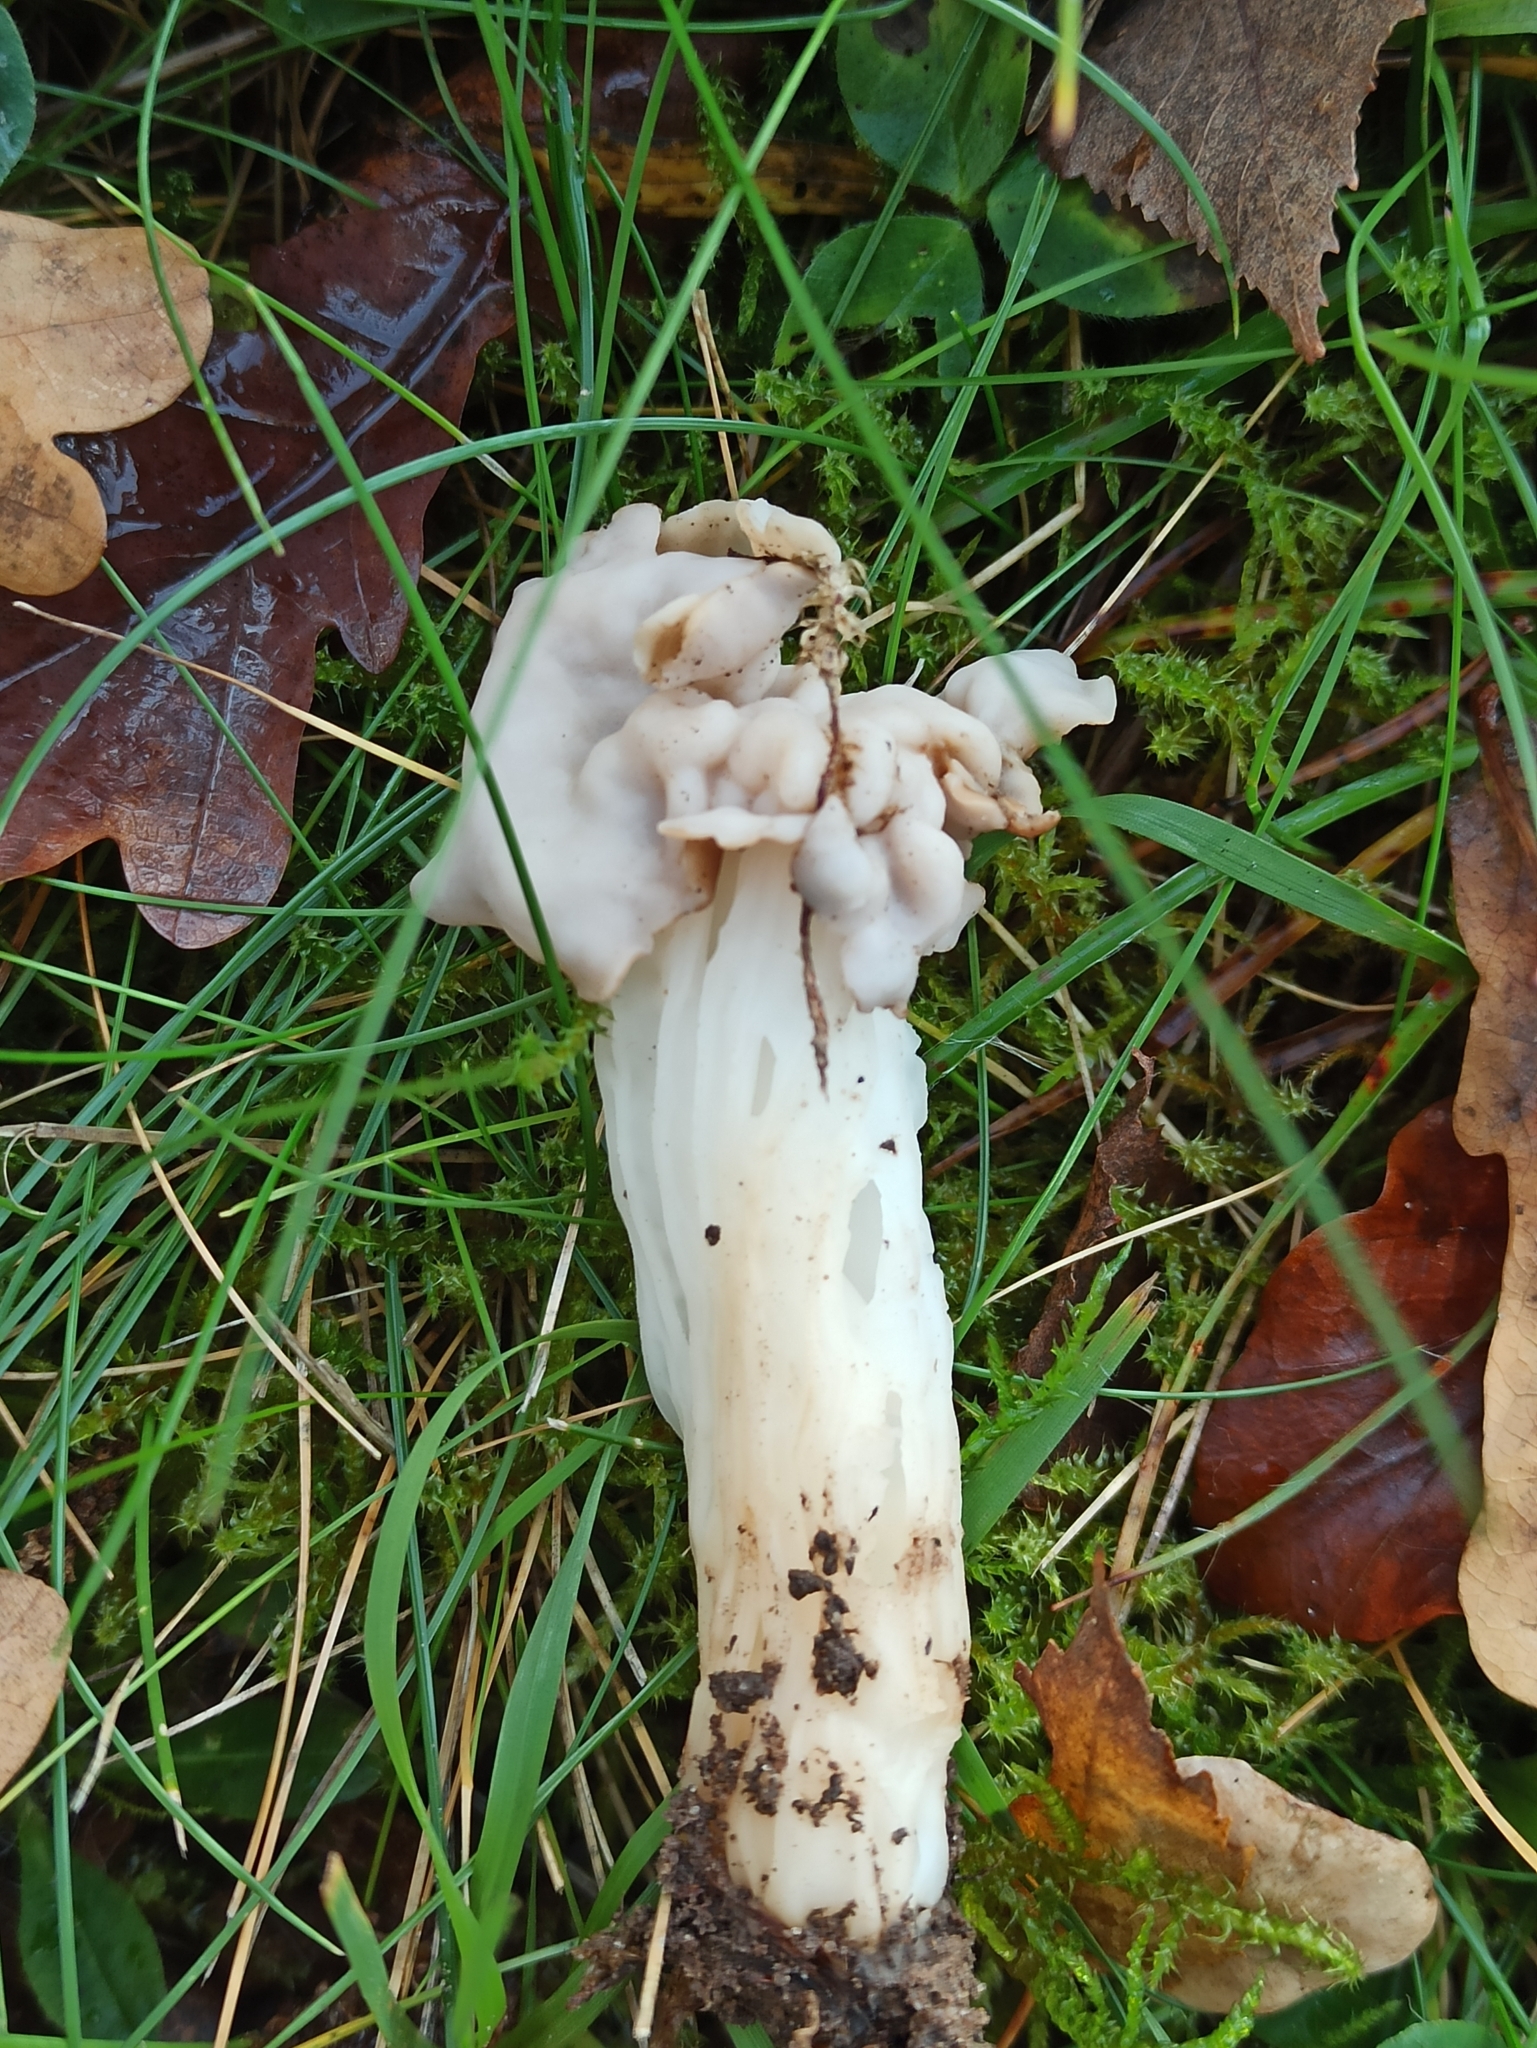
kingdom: Fungi
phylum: Ascomycota
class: Pezizomycetes
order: Pezizales
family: Helvellaceae
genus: Helvella
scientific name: Helvella crispa
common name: White saddle
